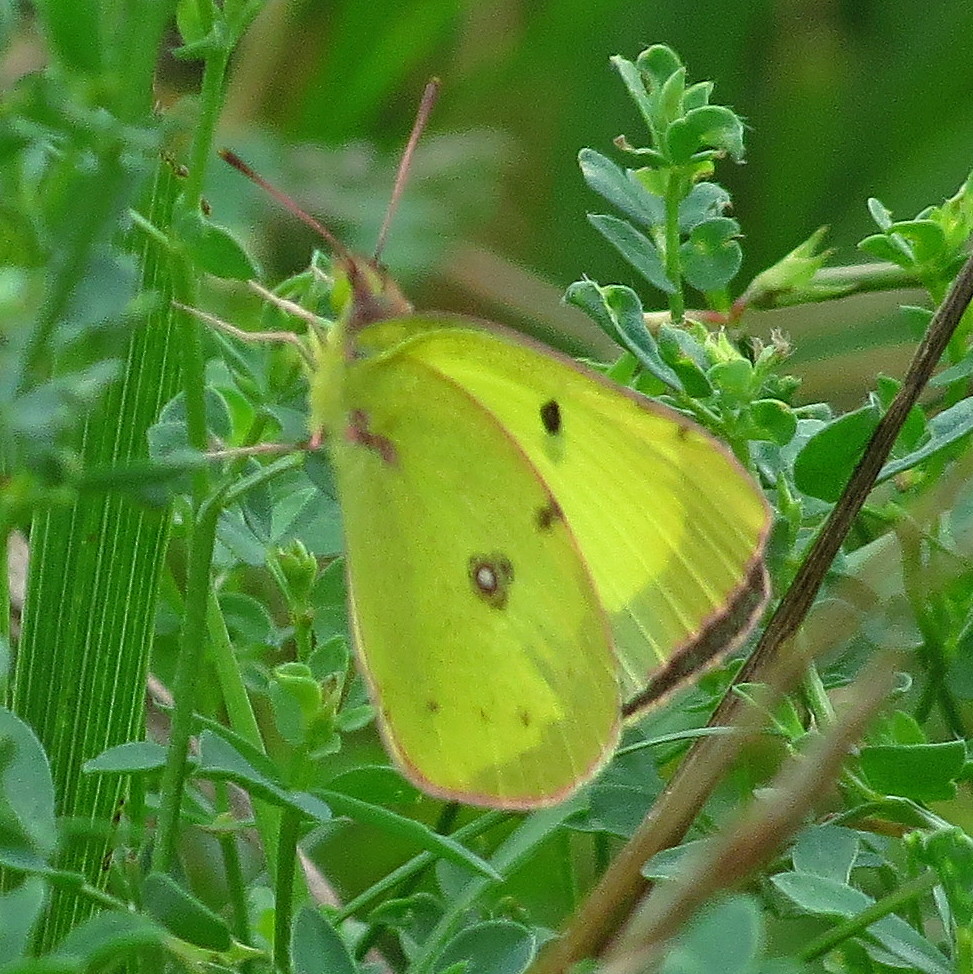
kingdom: Animalia
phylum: Arthropoda
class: Insecta
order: Lepidoptera
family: Pieridae
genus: Colias
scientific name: Colias philodice
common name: Clouded sulphur
